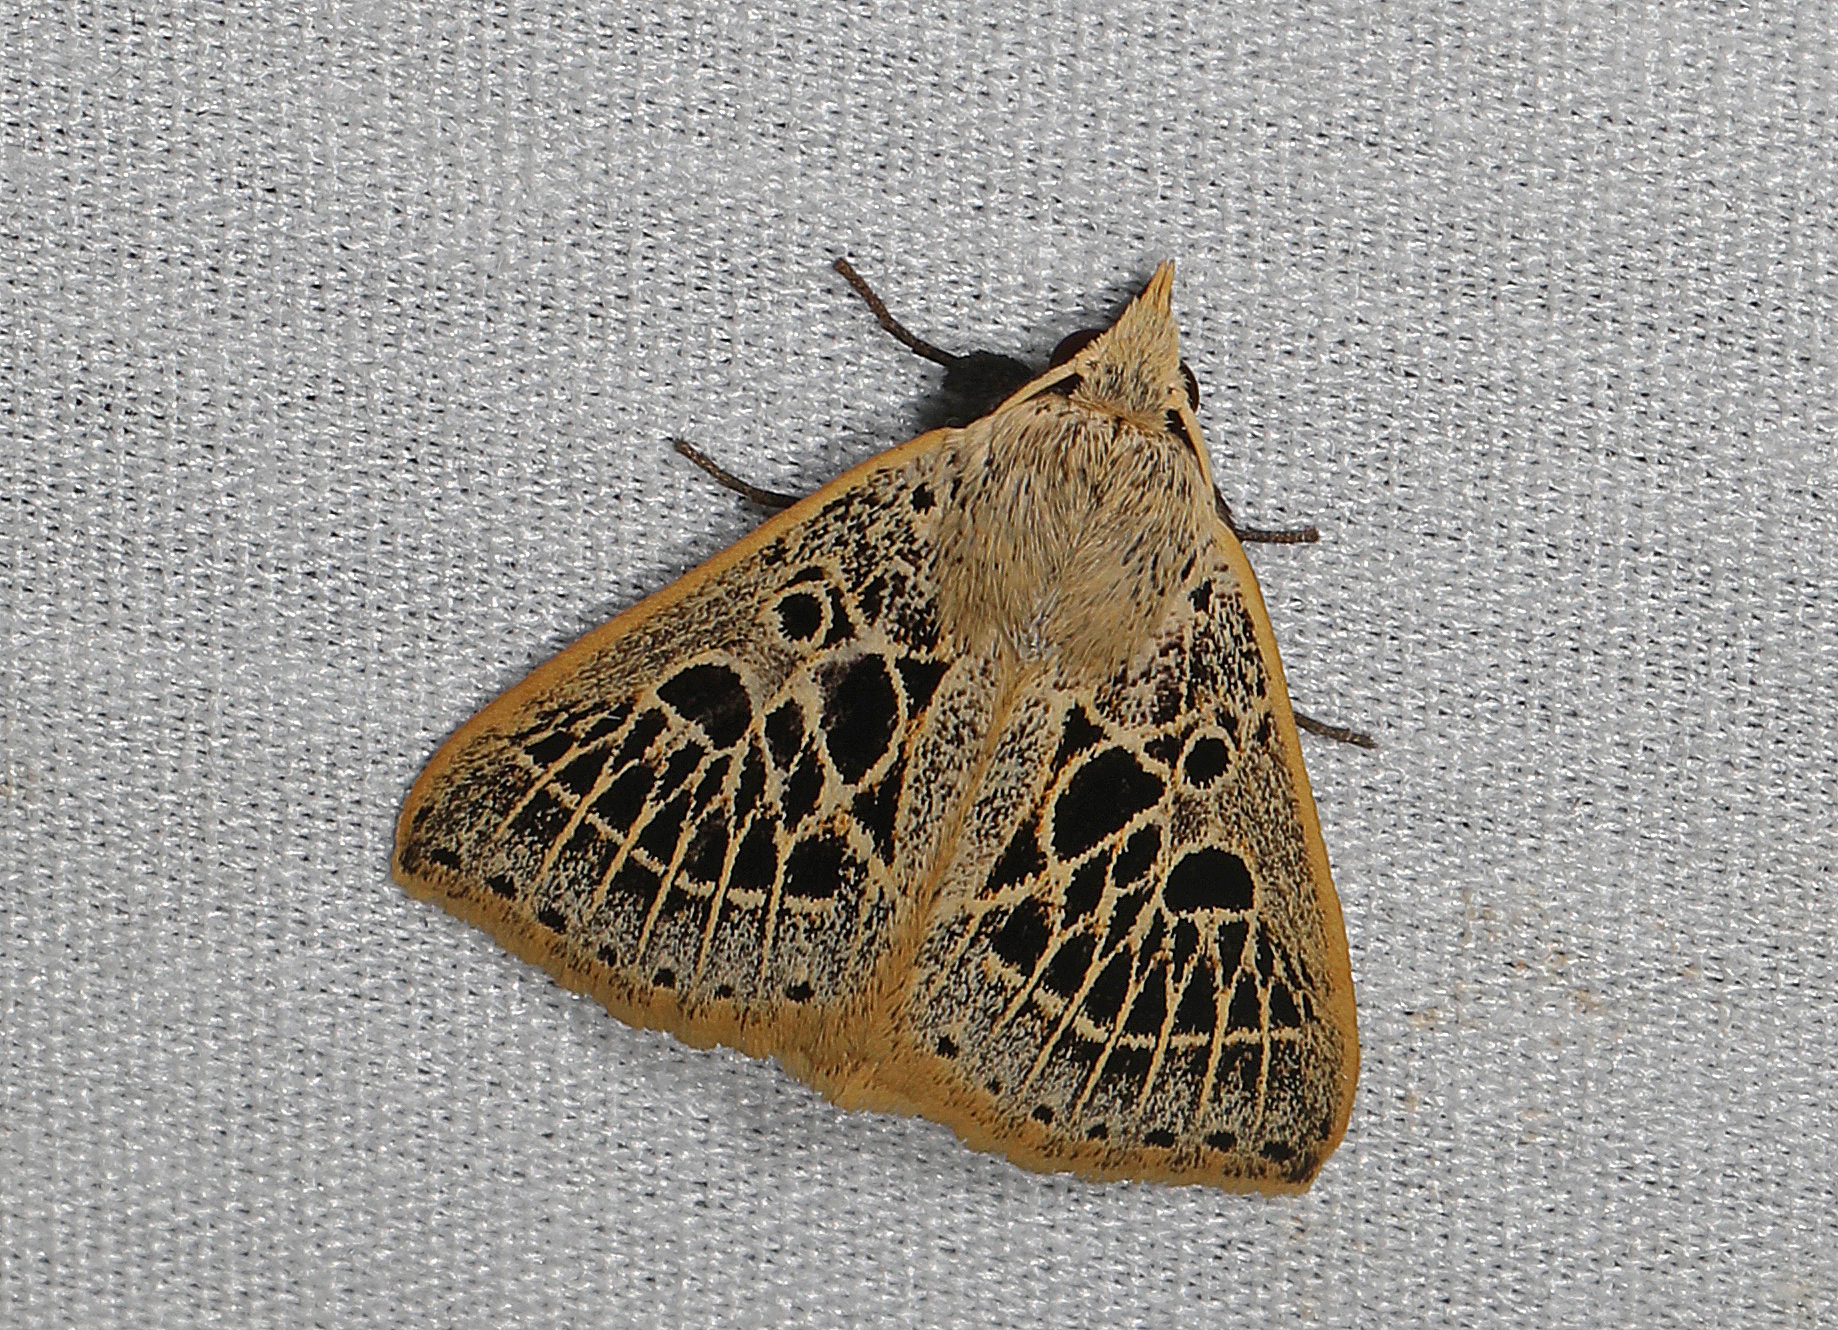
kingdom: Animalia
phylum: Arthropoda
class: Insecta
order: Lepidoptera
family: Erebidae
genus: Scolecocampa
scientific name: Scolecocampa Herminodes tessellata
